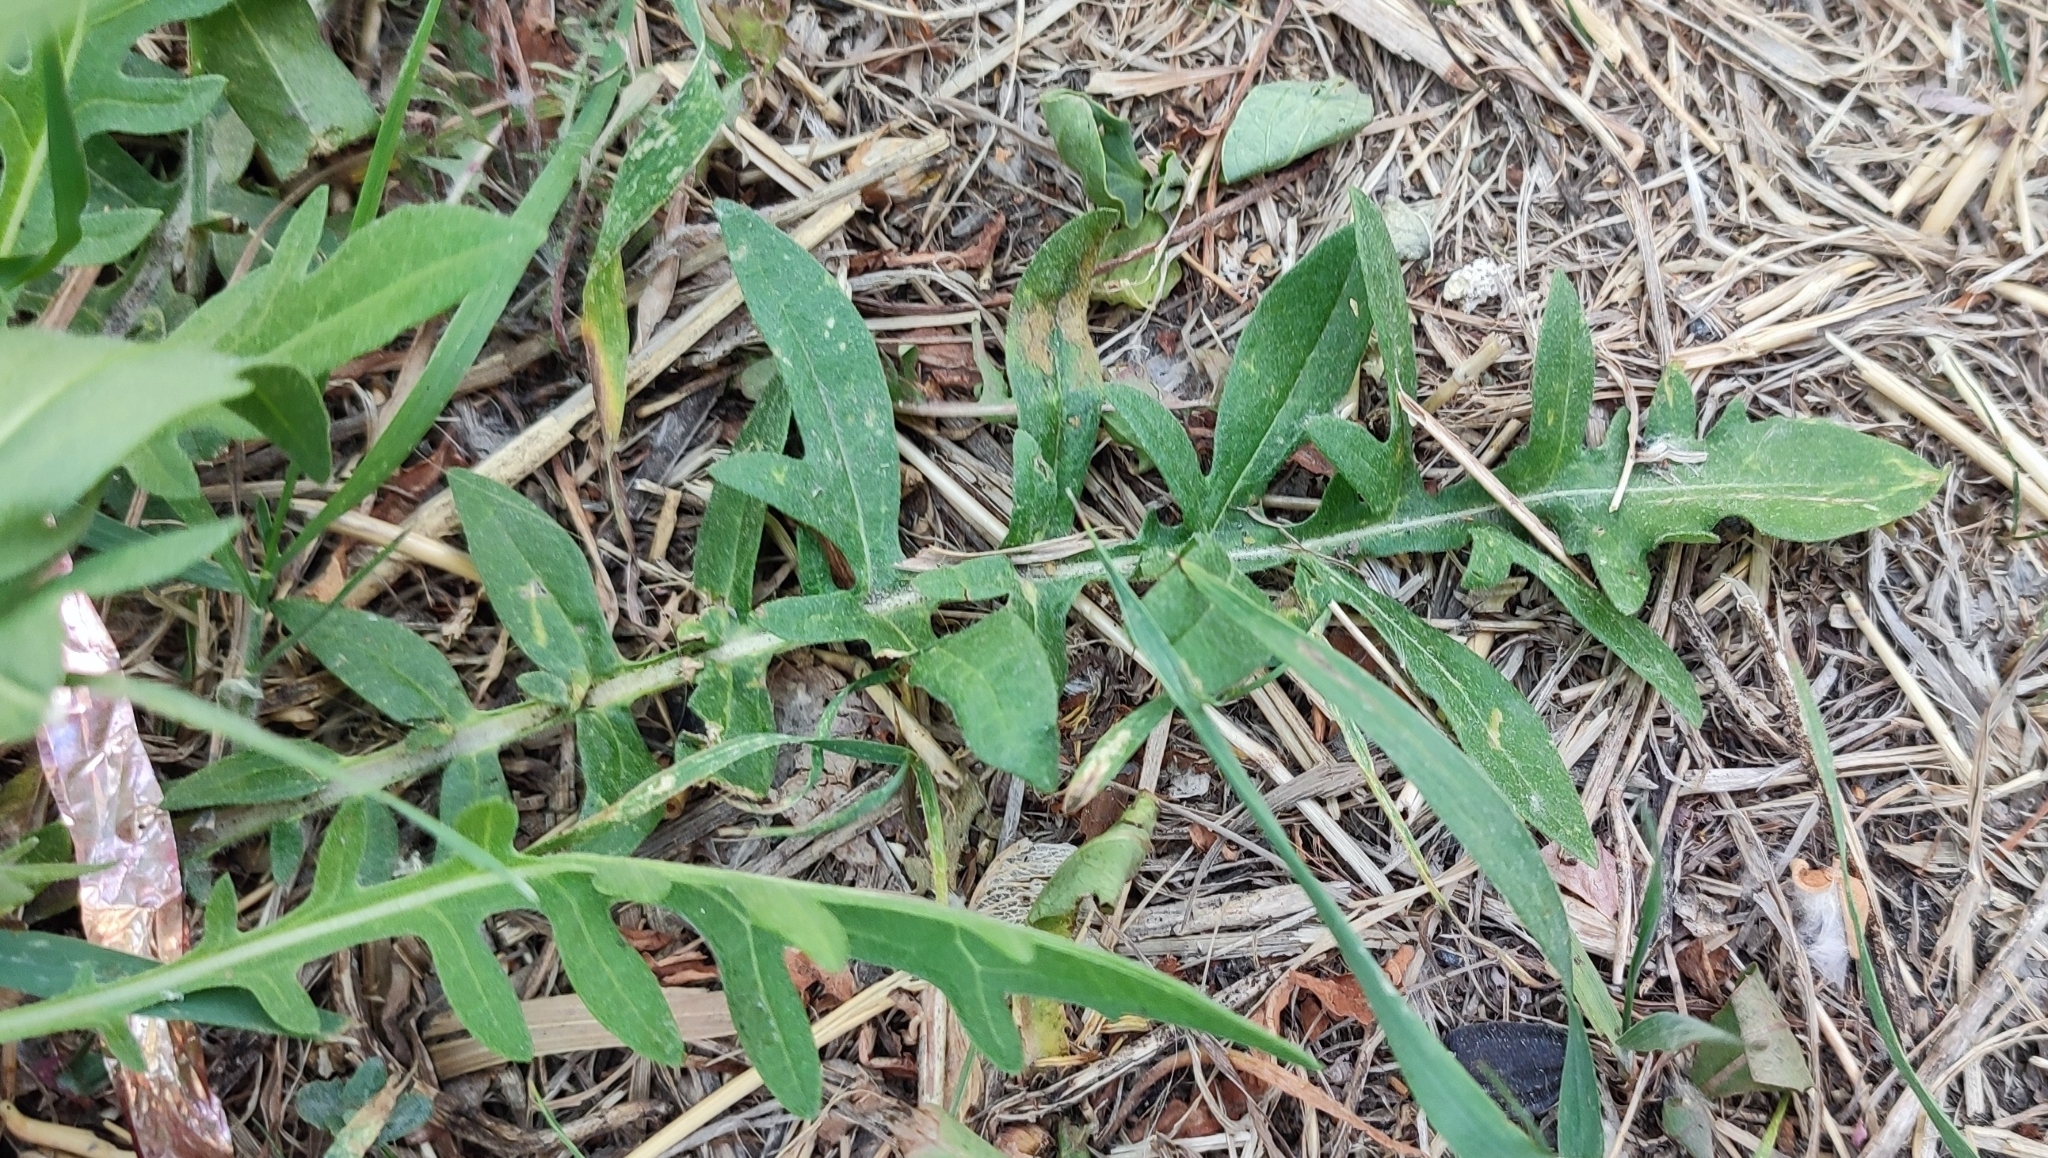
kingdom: Plantae
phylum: Tracheophyta
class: Magnoliopsida
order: Asterales
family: Asteraceae
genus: Centaurea
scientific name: Centaurea scabiosa
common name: Greater knapweed
